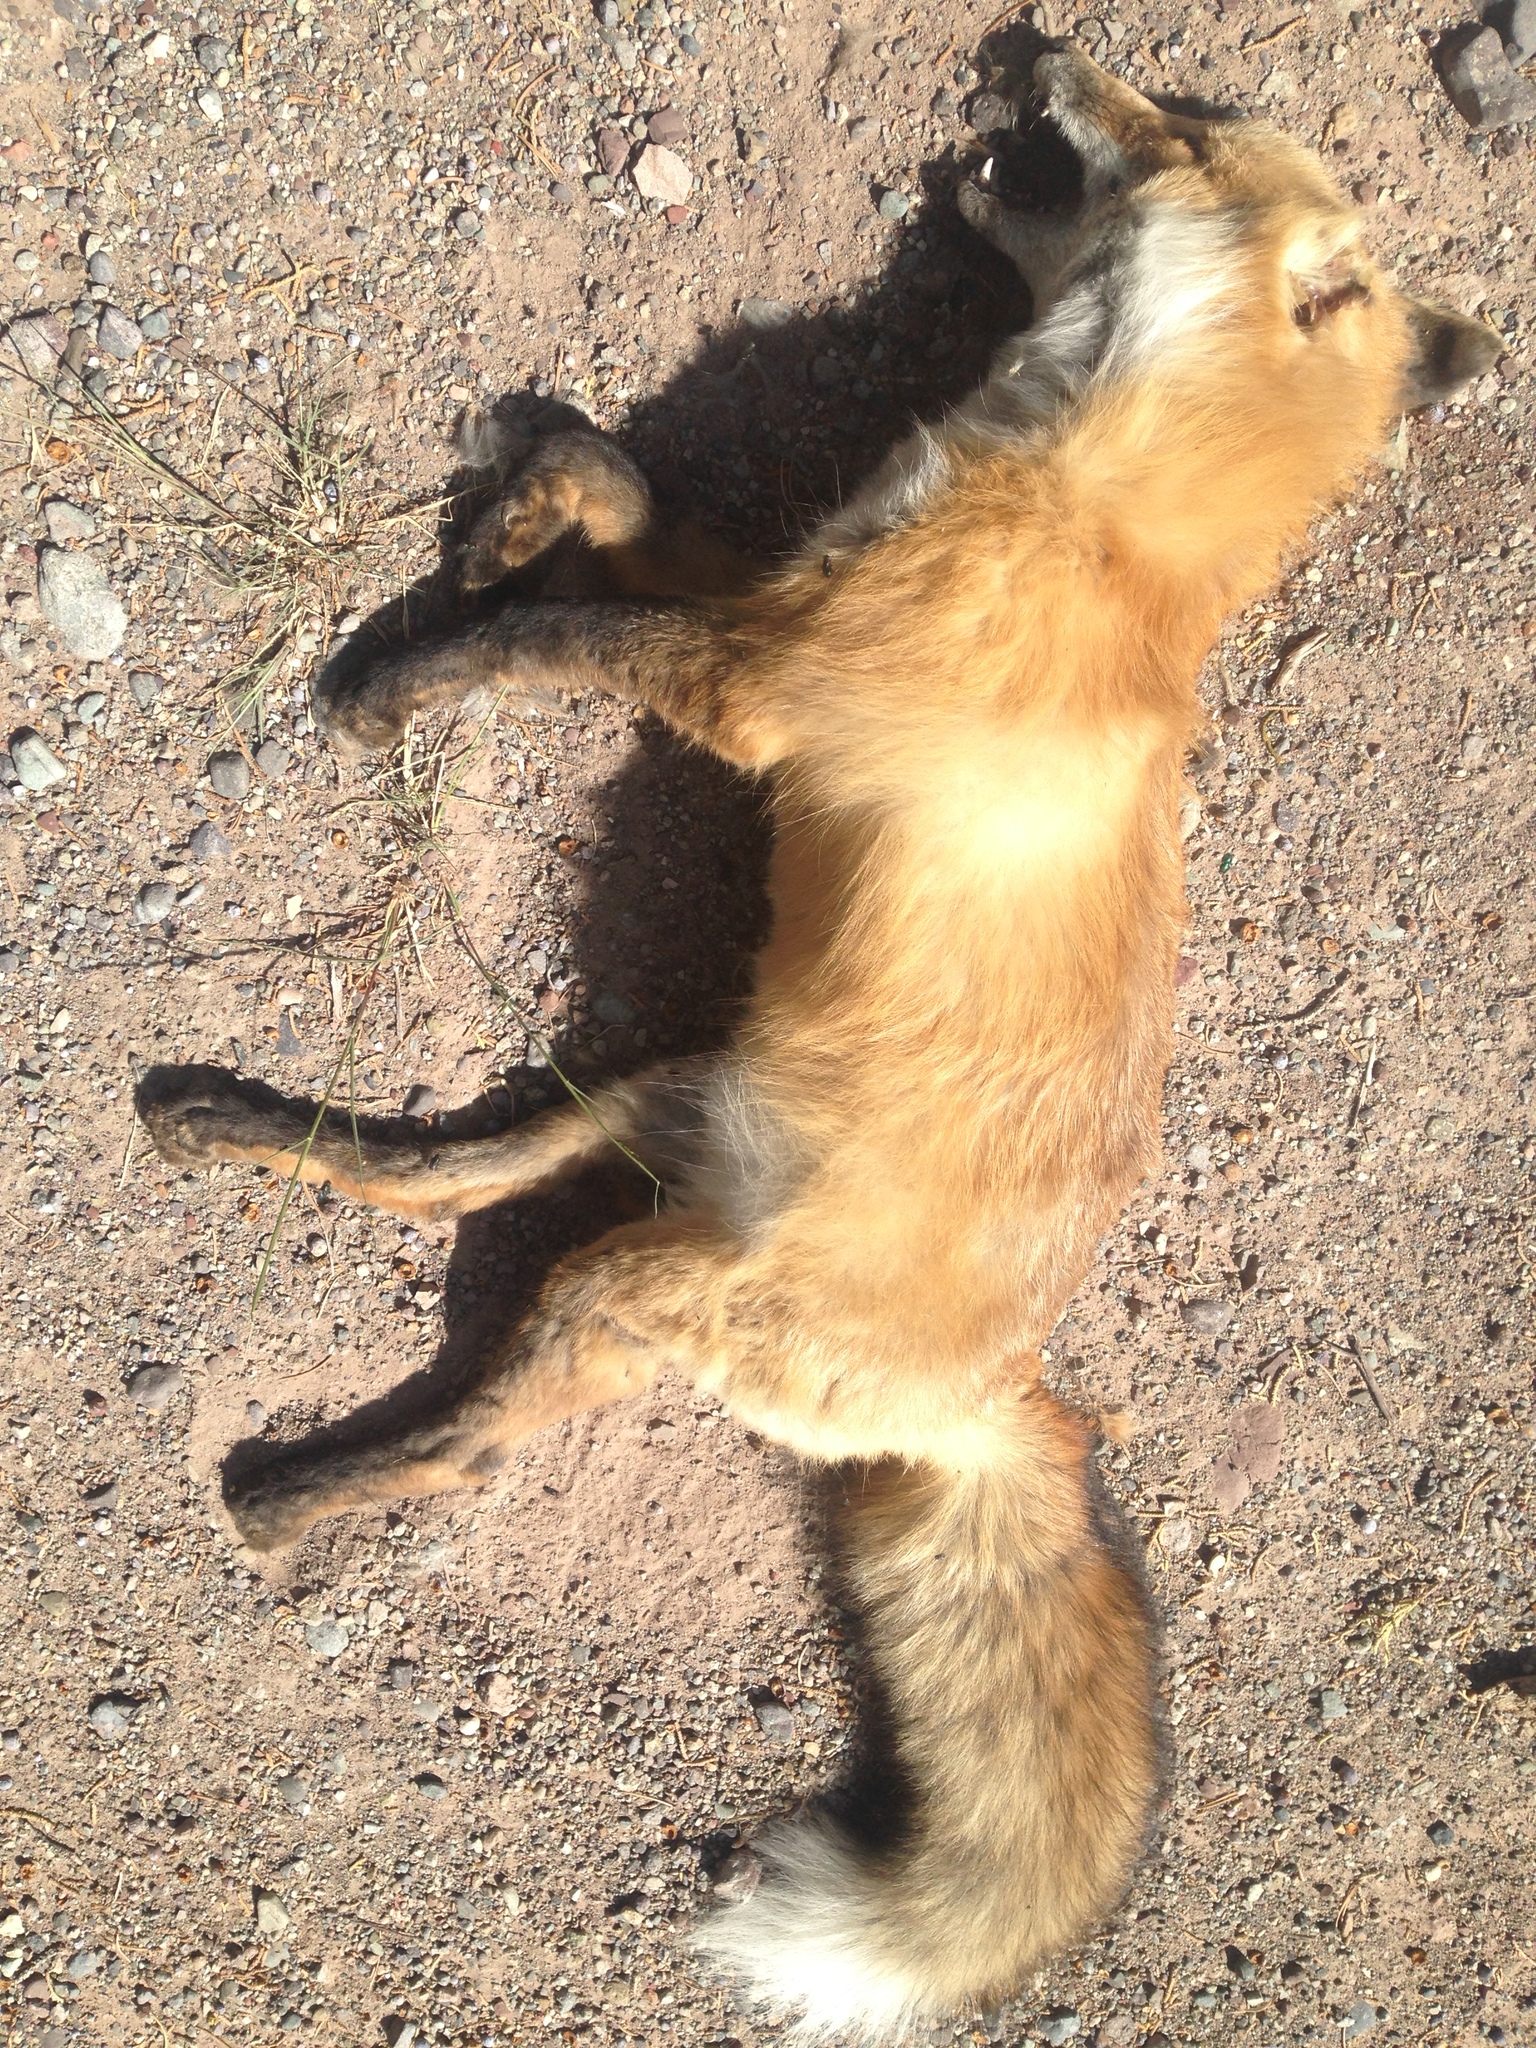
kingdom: Animalia
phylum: Chordata
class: Mammalia
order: Carnivora
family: Canidae
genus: Vulpes
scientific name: Vulpes vulpes
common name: Red fox
